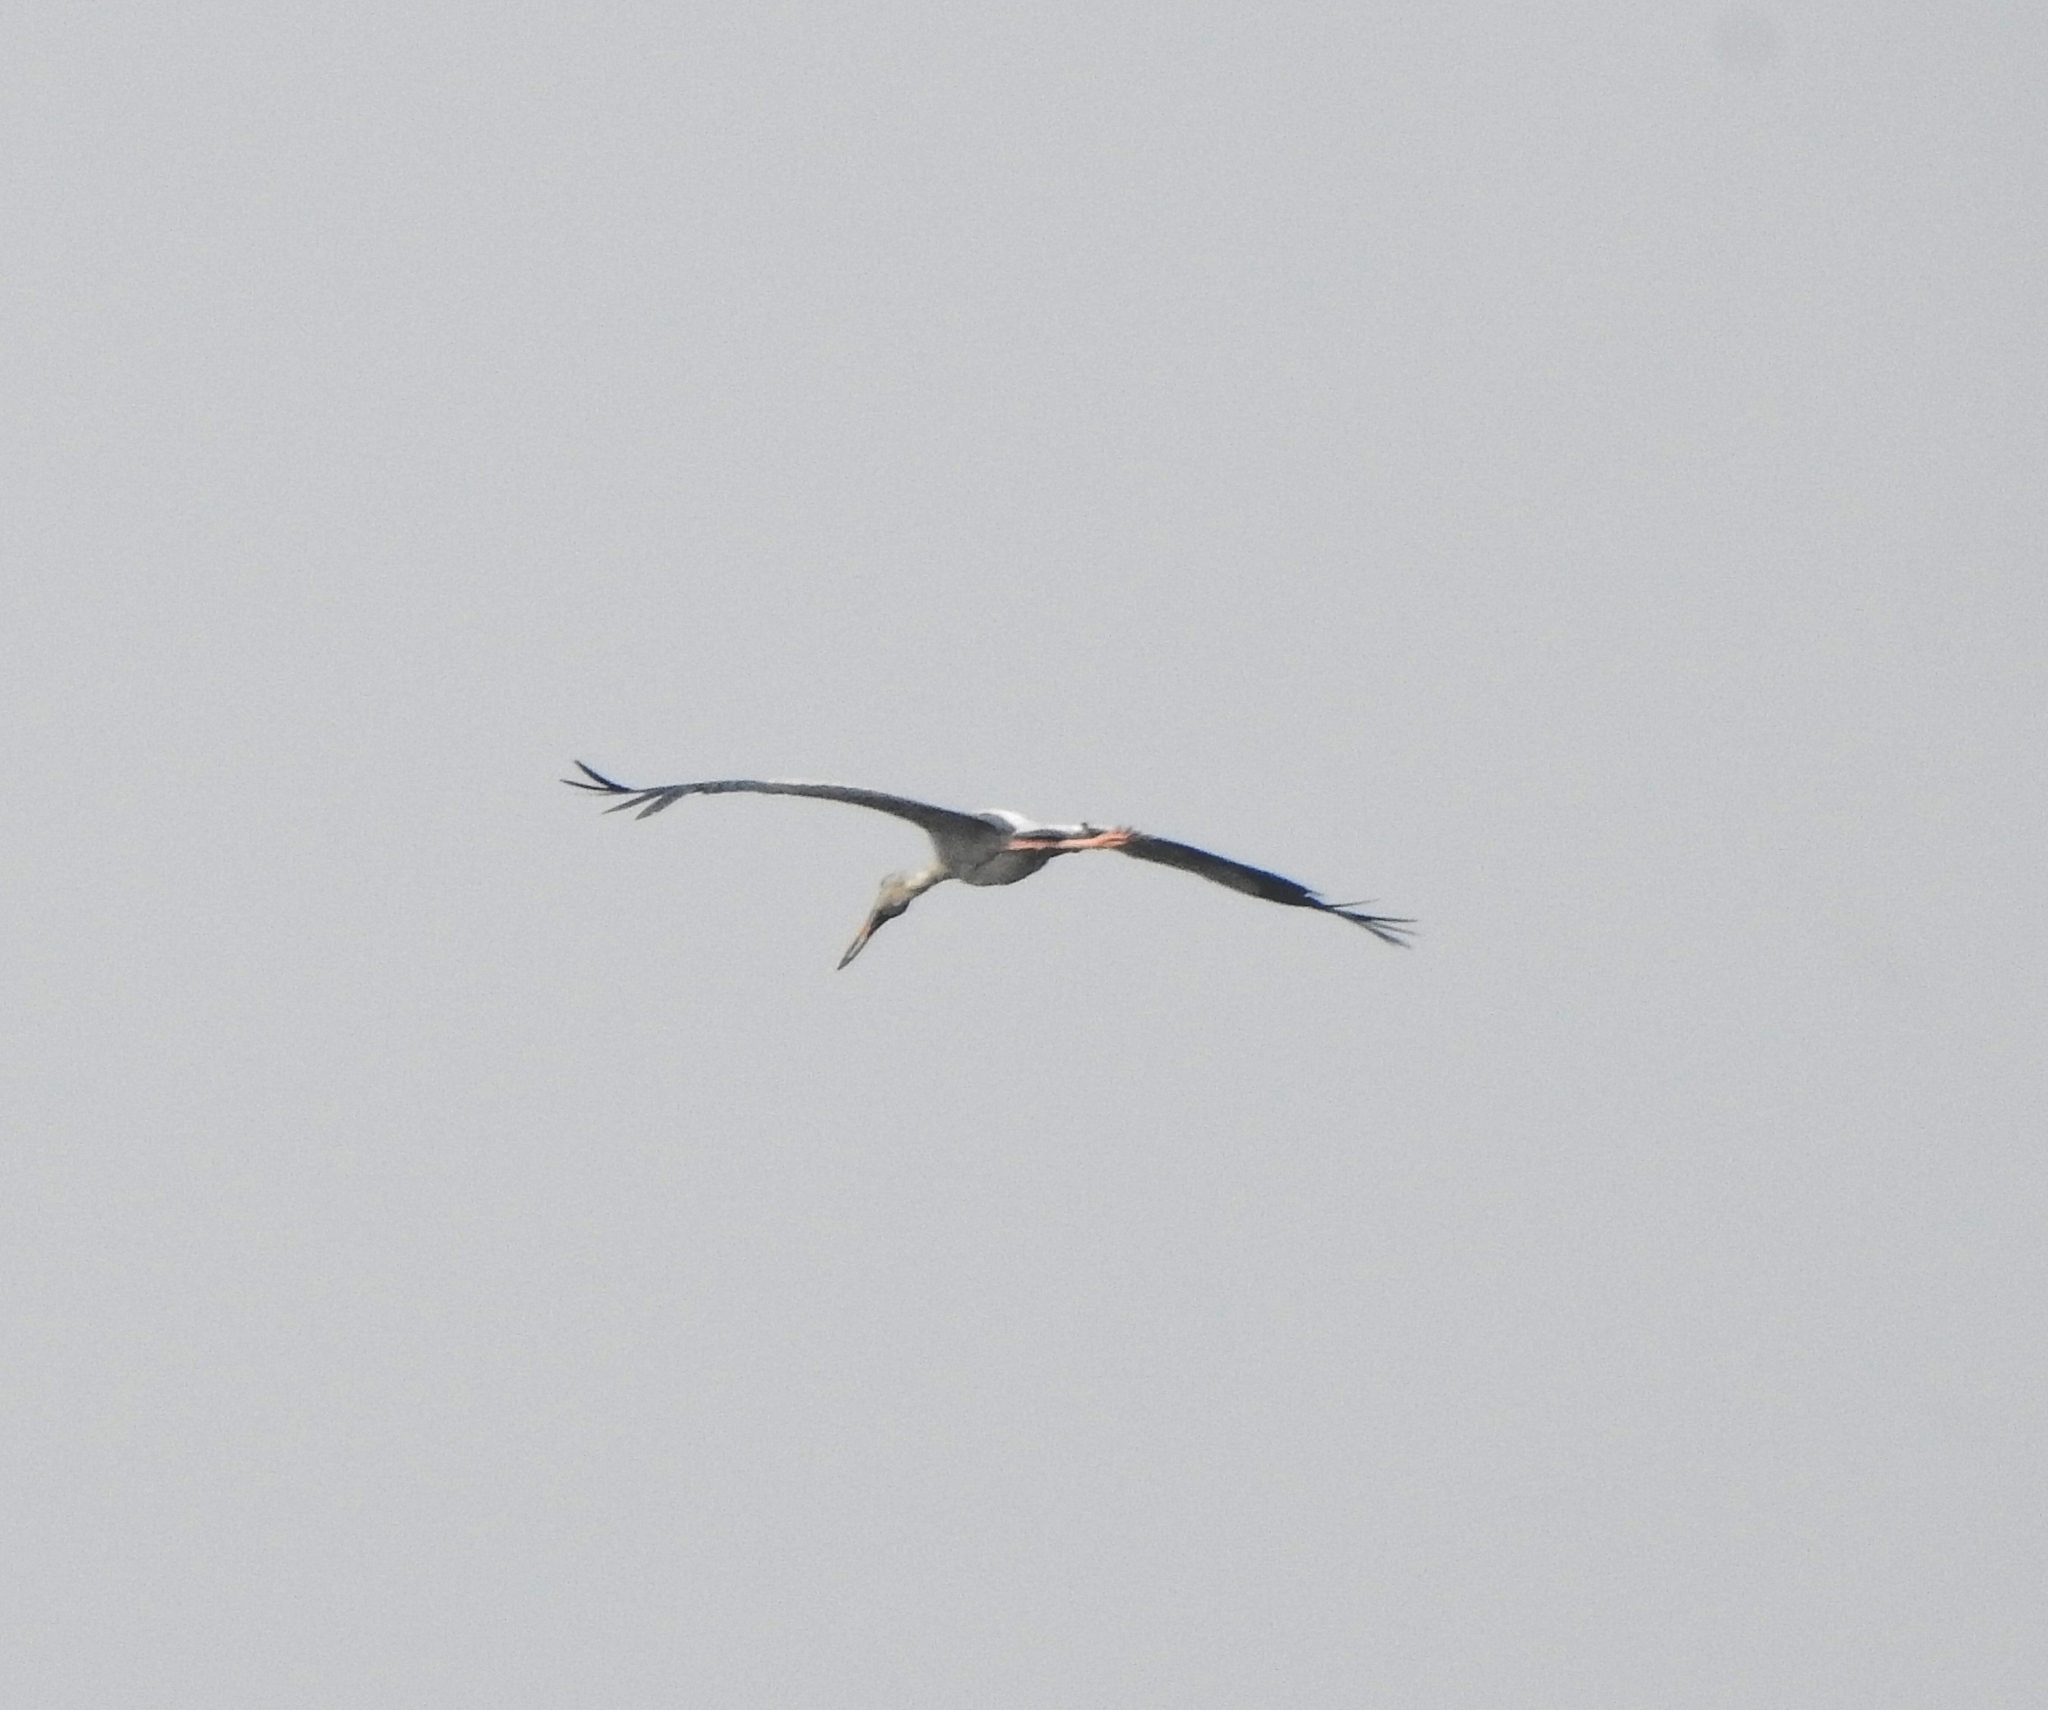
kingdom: Animalia
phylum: Chordata
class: Aves
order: Ciconiiformes
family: Ciconiidae
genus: Anastomus
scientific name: Anastomus oscitans
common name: Asian openbill
